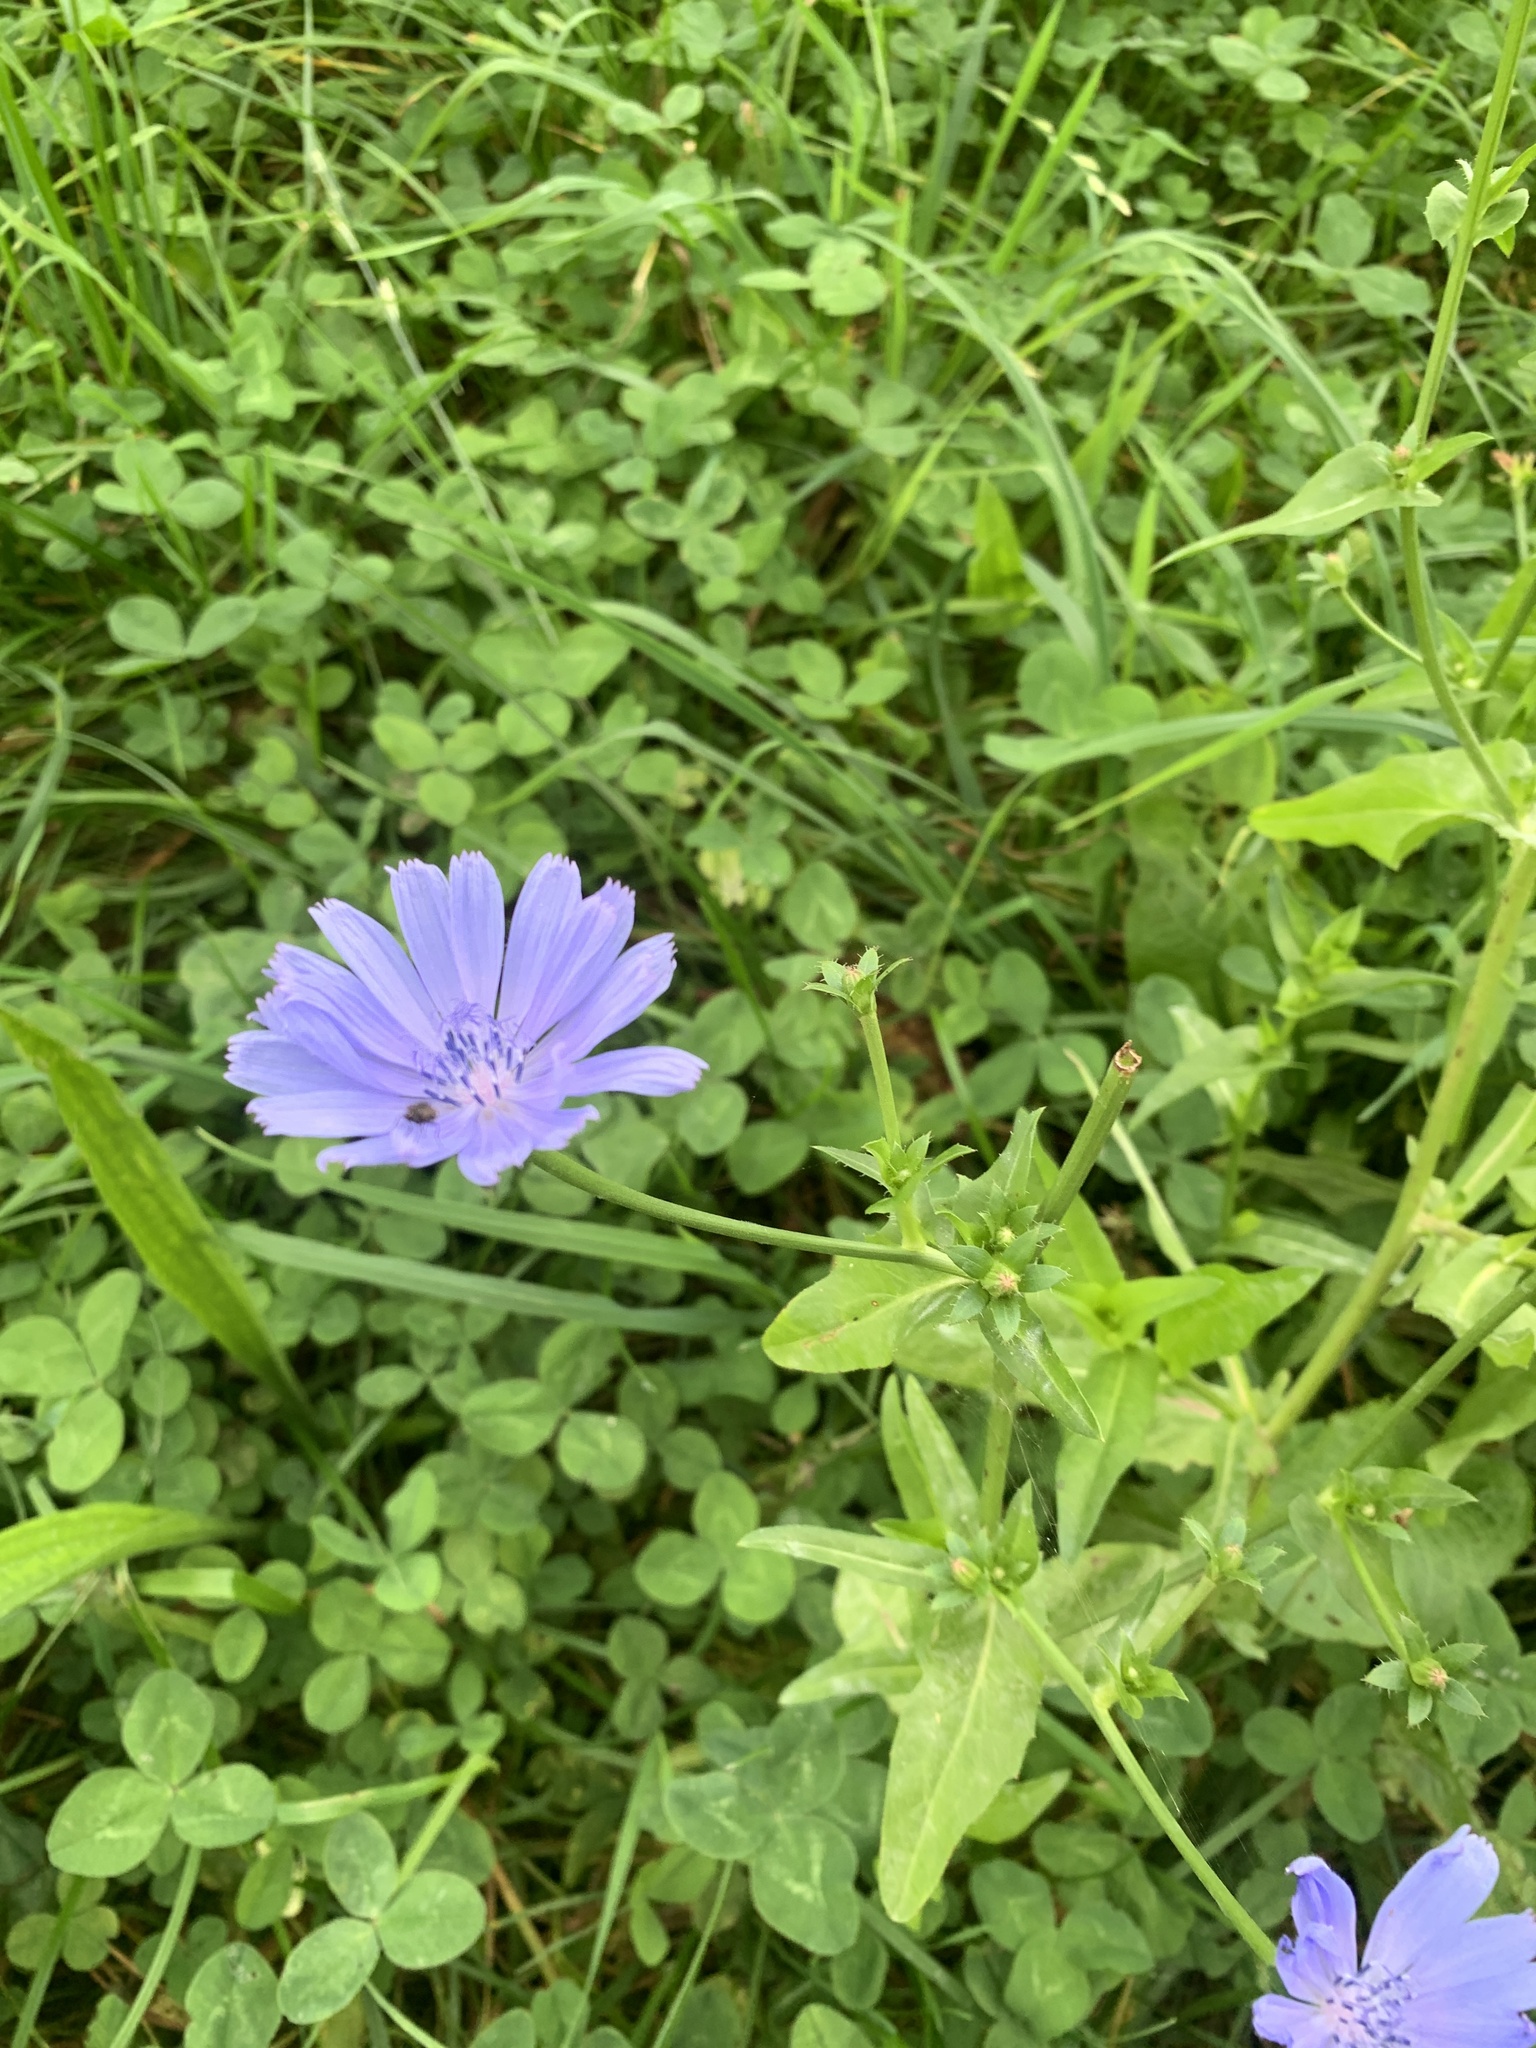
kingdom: Plantae
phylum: Tracheophyta
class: Magnoliopsida
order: Asterales
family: Asteraceae
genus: Cichorium
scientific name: Cichorium intybus
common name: Chicory
